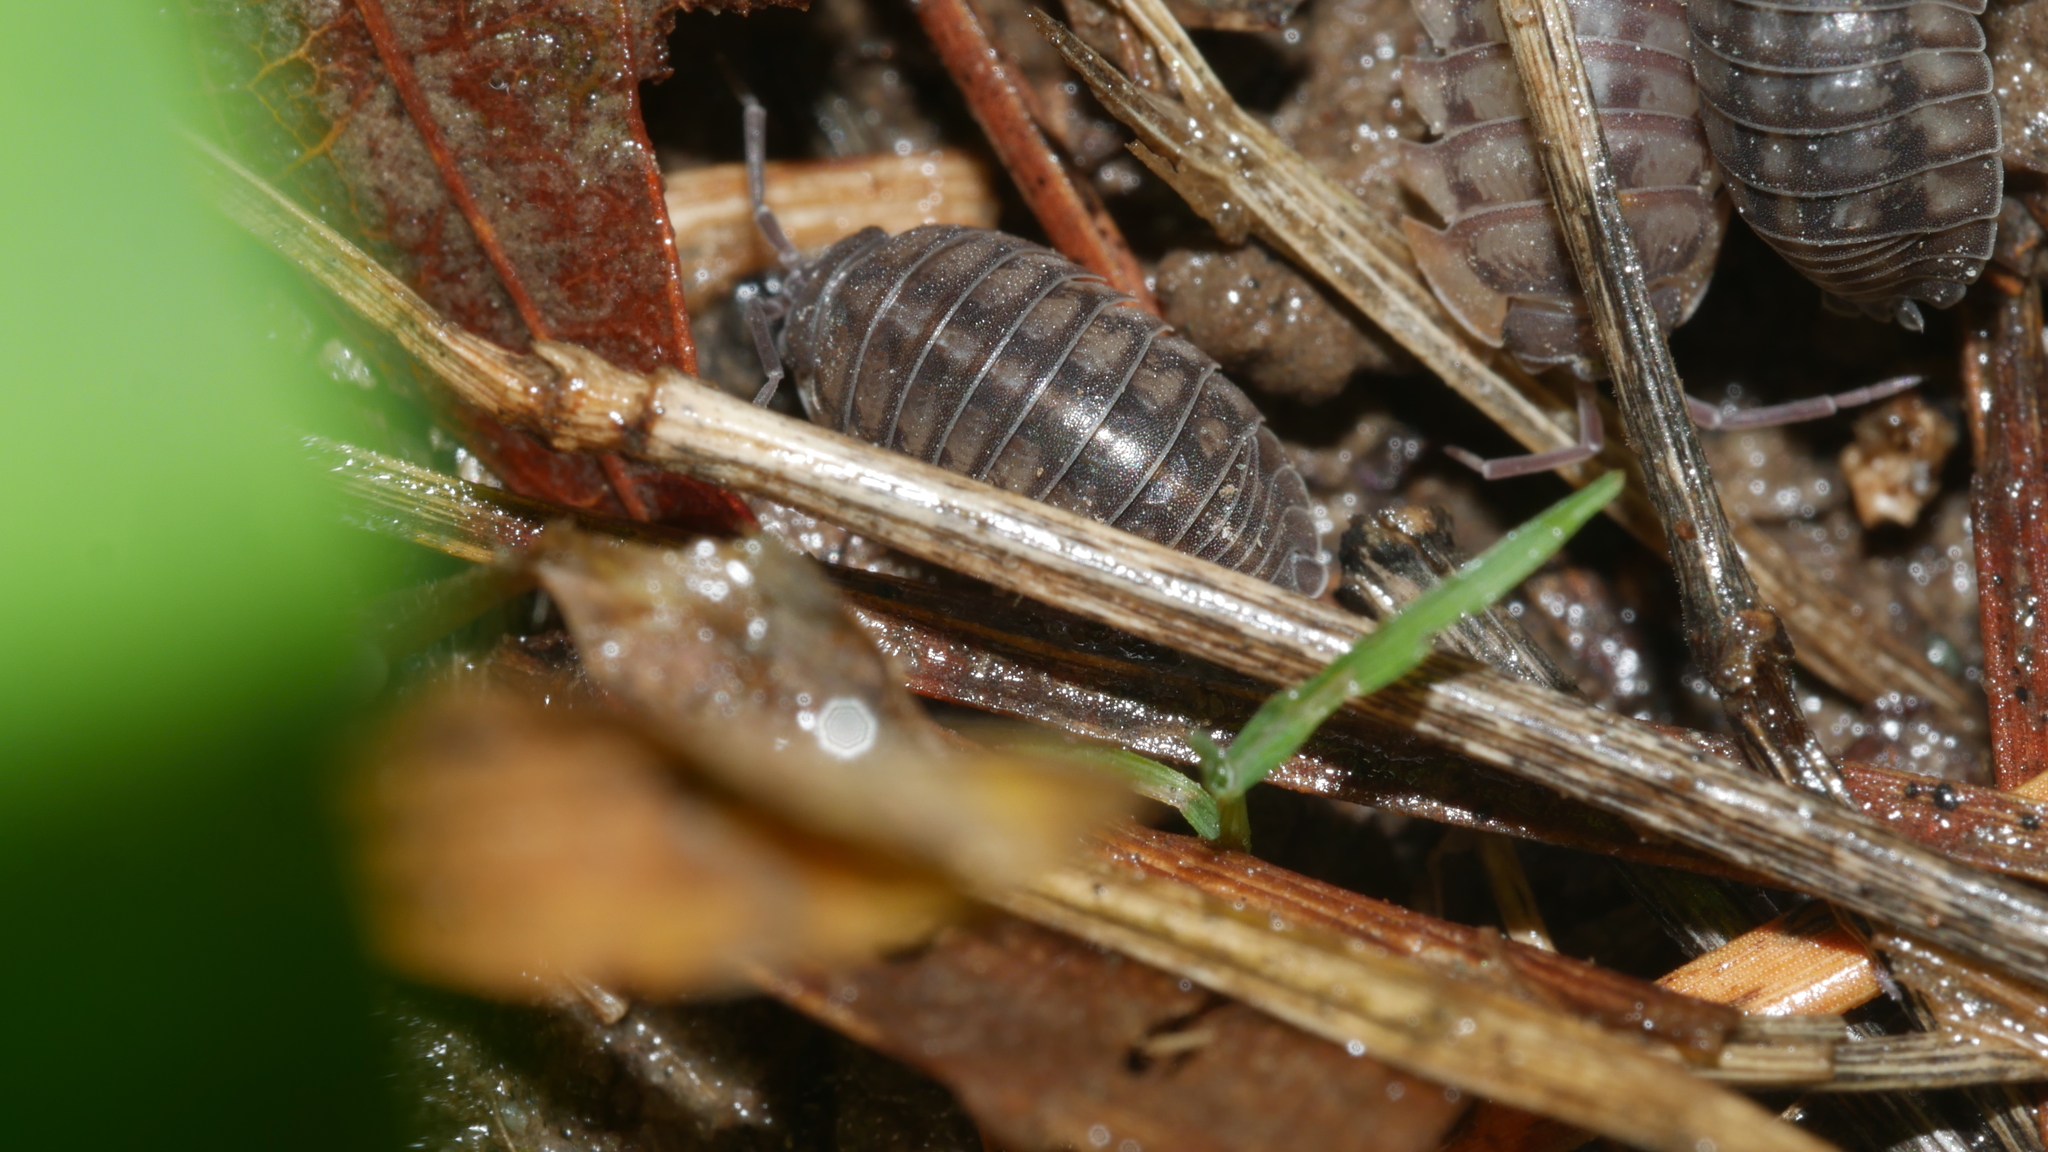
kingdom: Animalia
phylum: Arthropoda
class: Malacostraca
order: Isopoda
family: Armadillidiidae
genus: Armadillidium
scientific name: Armadillidium nasatum
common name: Isopod
